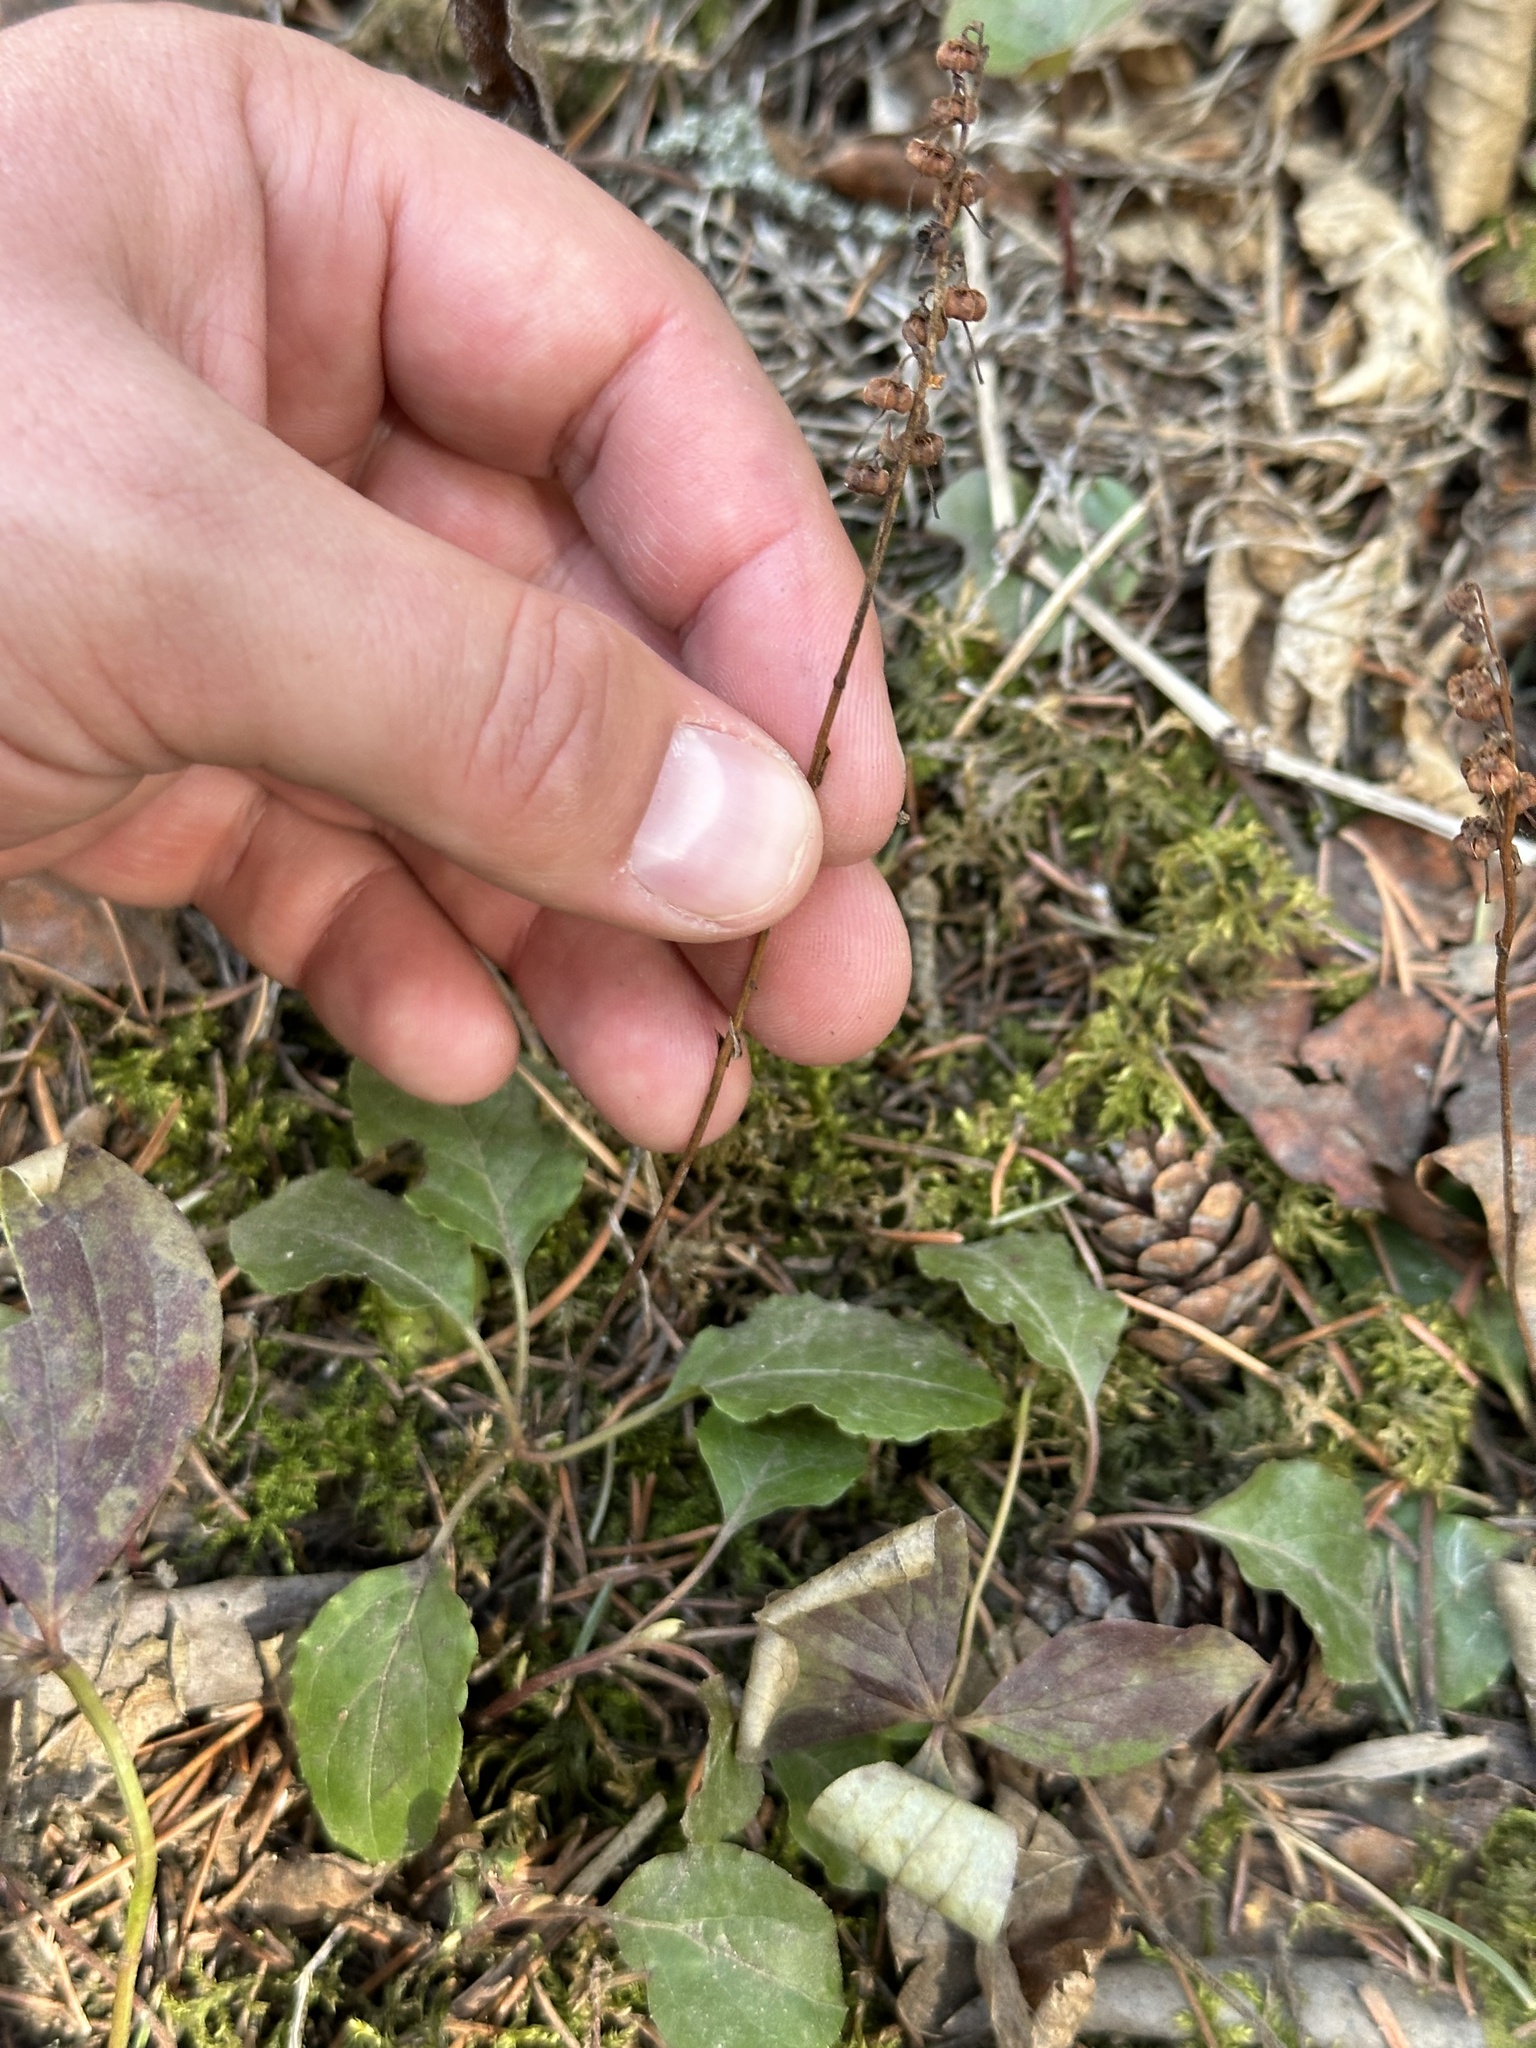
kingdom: Plantae
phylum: Tracheophyta
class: Magnoliopsida
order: Ericales
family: Ericaceae
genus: Orthilia
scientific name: Orthilia secunda
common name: One-sided orthilia
